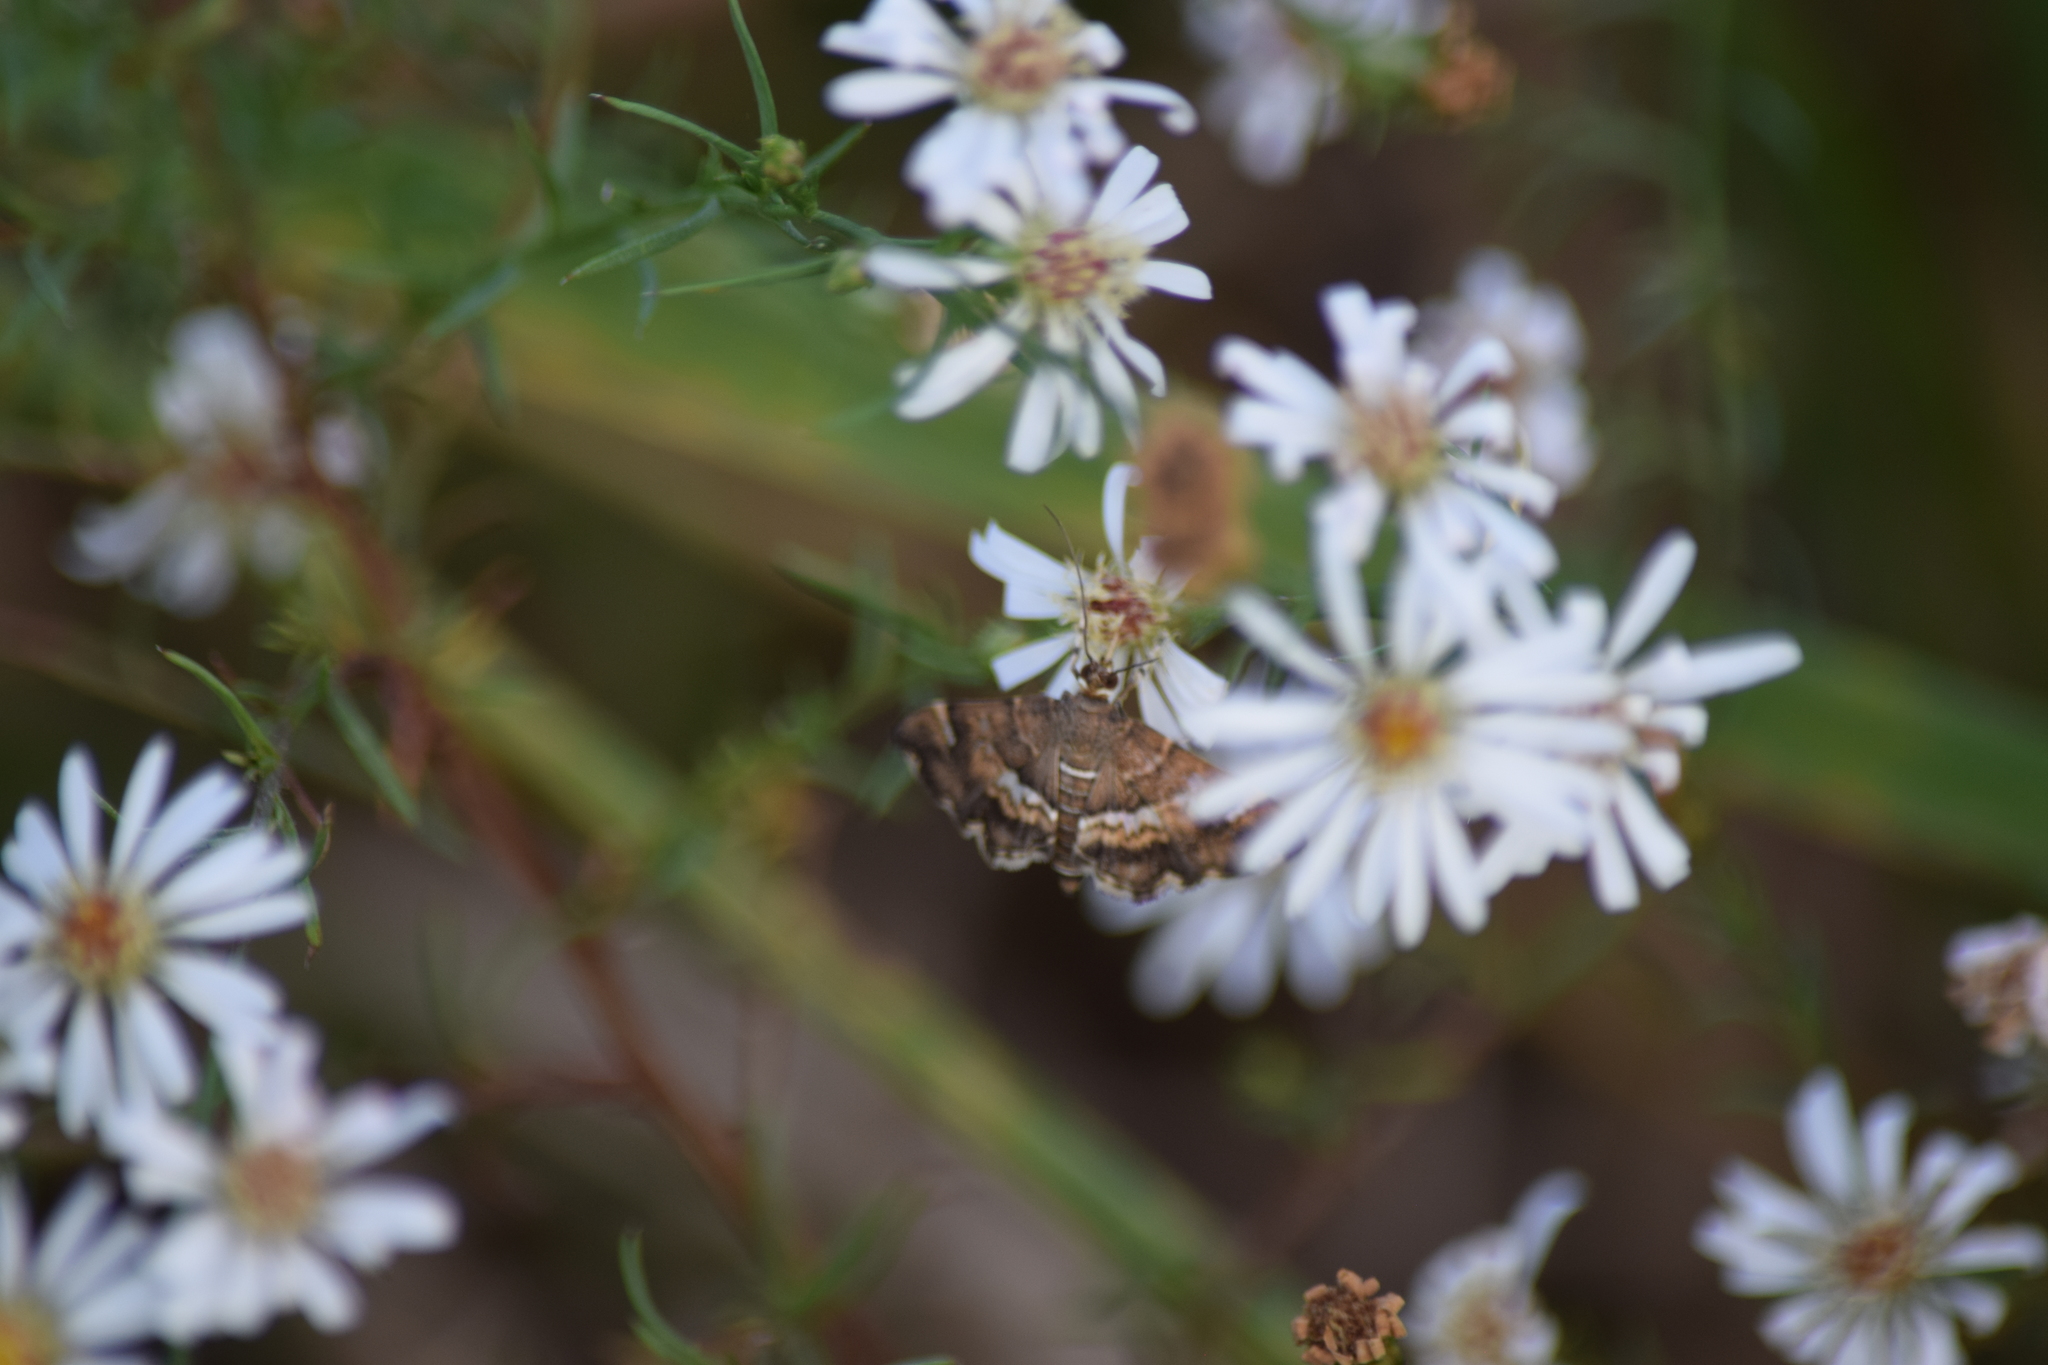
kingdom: Animalia
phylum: Arthropoda
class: Insecta
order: Lepidoptera
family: Crambidae
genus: Hymenia
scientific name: Hymenia perspectalis
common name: Spotted beet webworm
